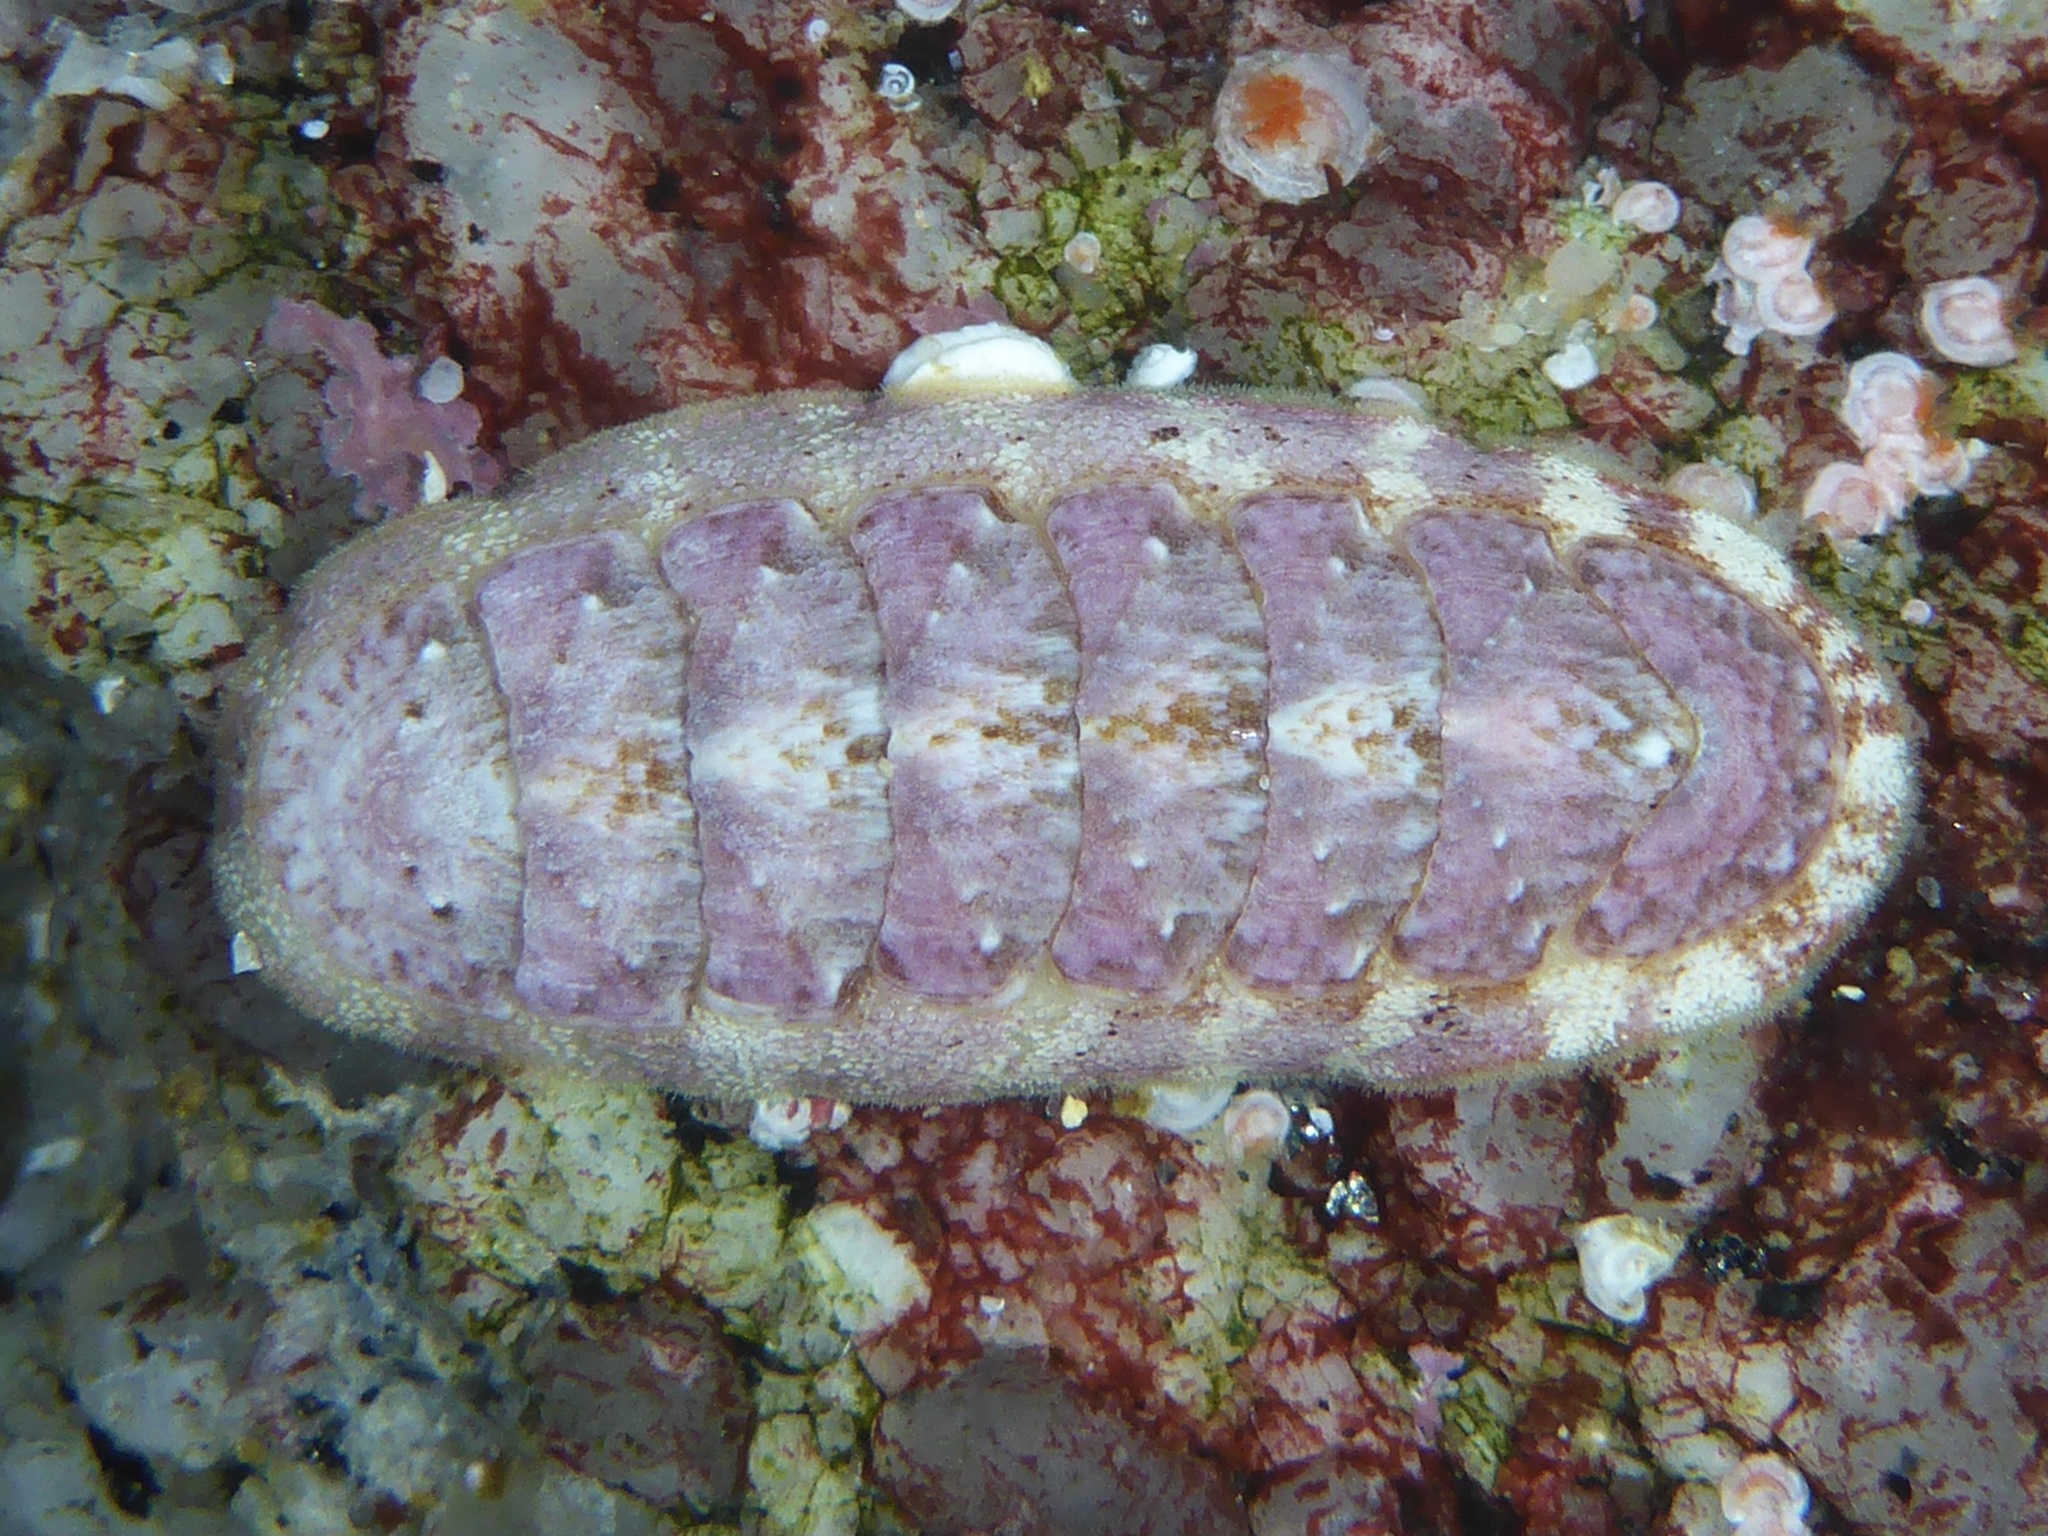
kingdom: Animalia
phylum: Mollusca
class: Polyplacophora
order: Chitonida
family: Ischnochitonidae
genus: Stenoplax
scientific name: Stenoplax heathiana
